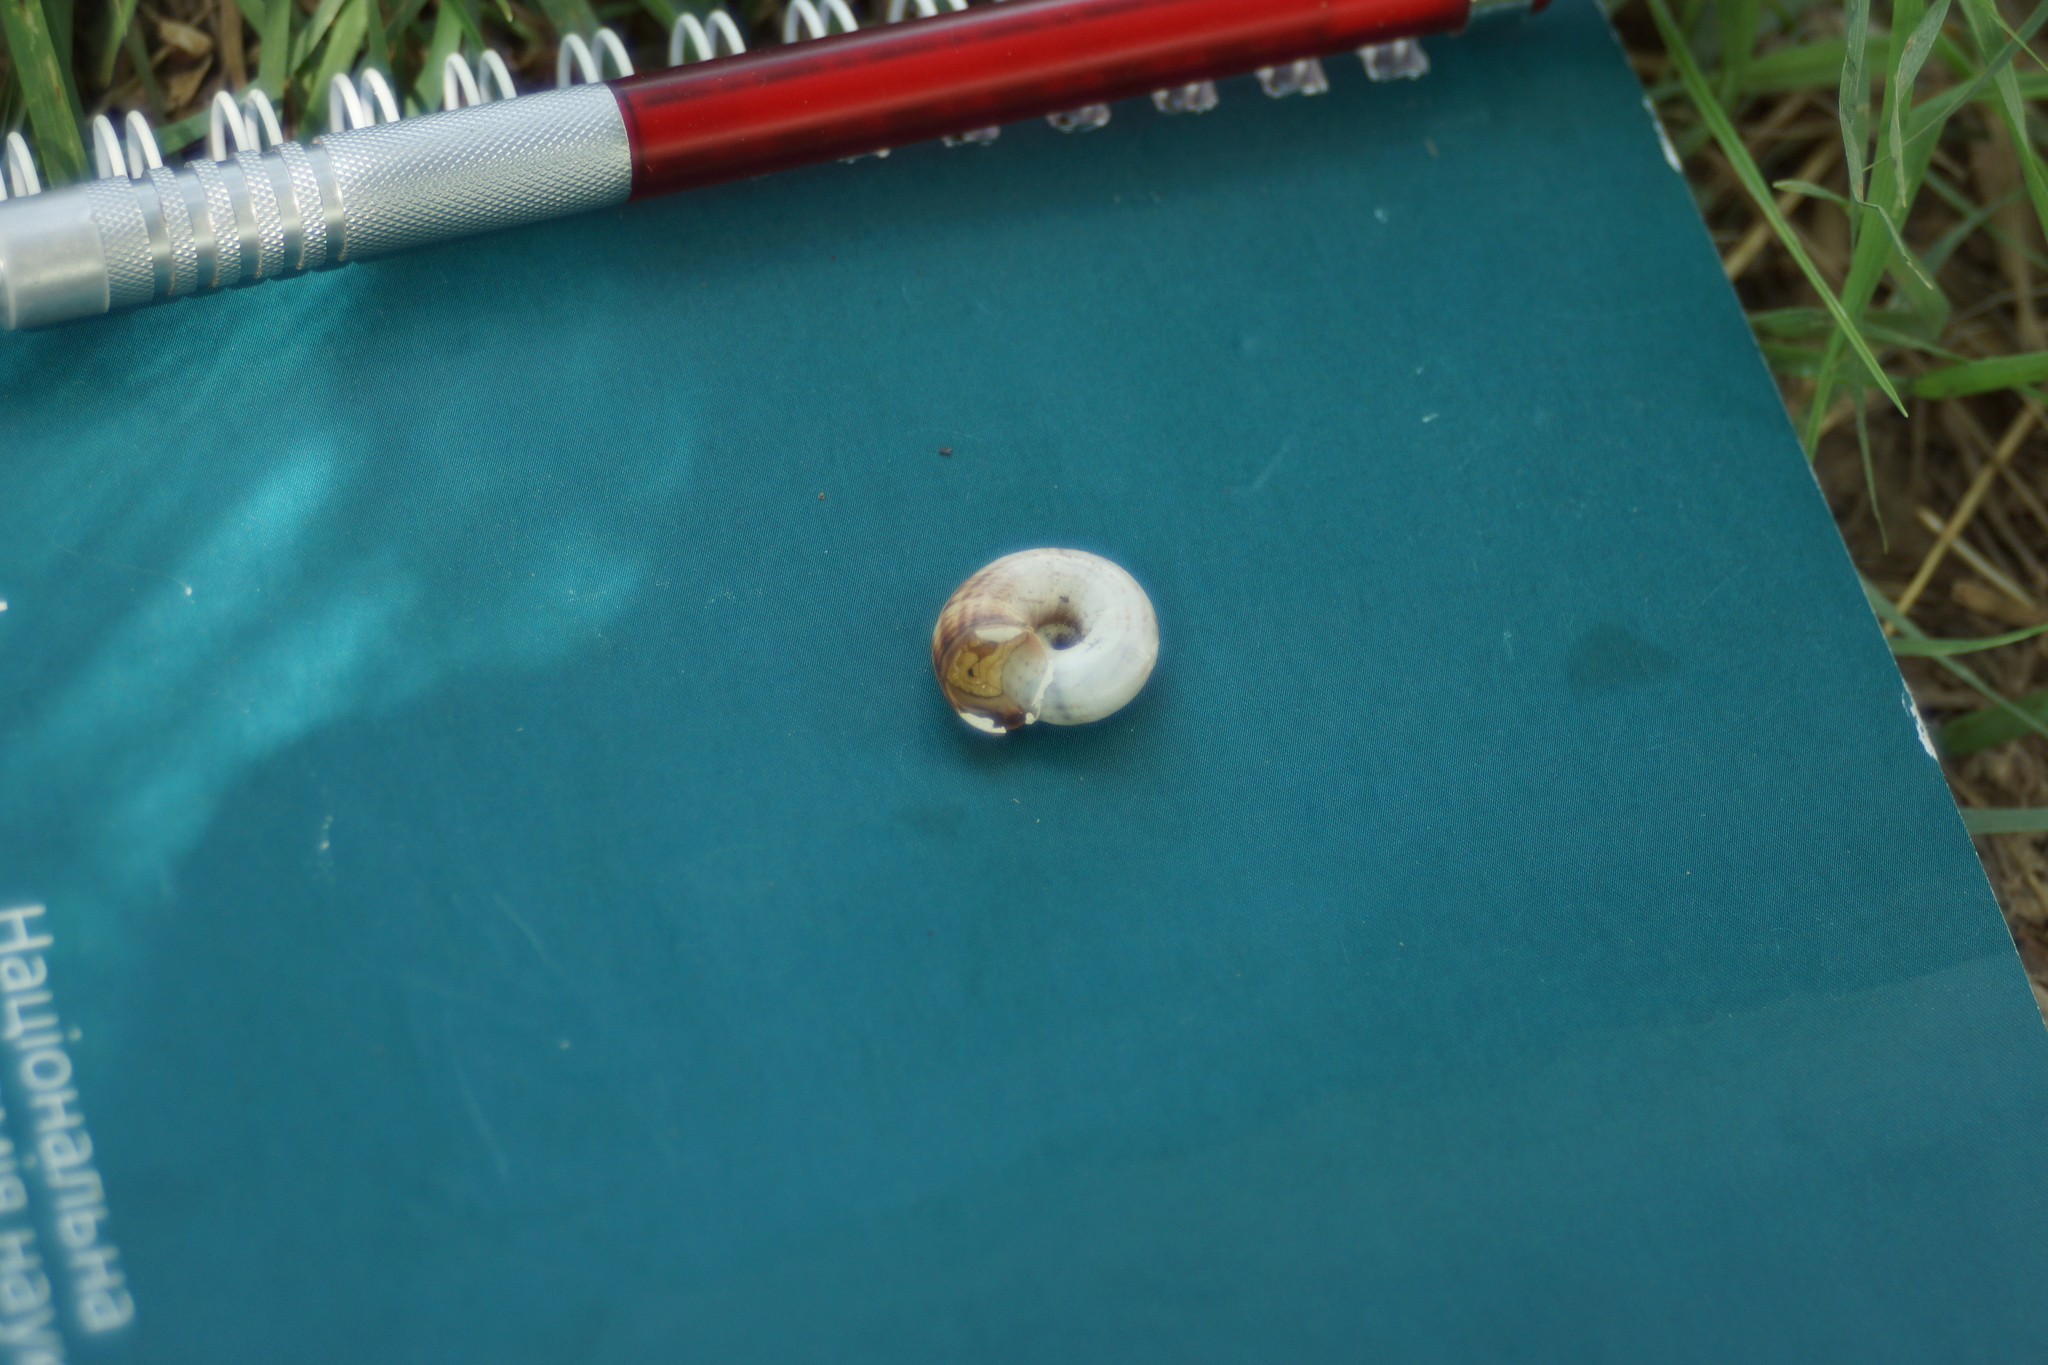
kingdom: Animalia
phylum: Mollusca
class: Gastropoda
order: Stylommatophora
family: Geomitridae
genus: Xeropicta
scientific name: Xeropicta derbentina
